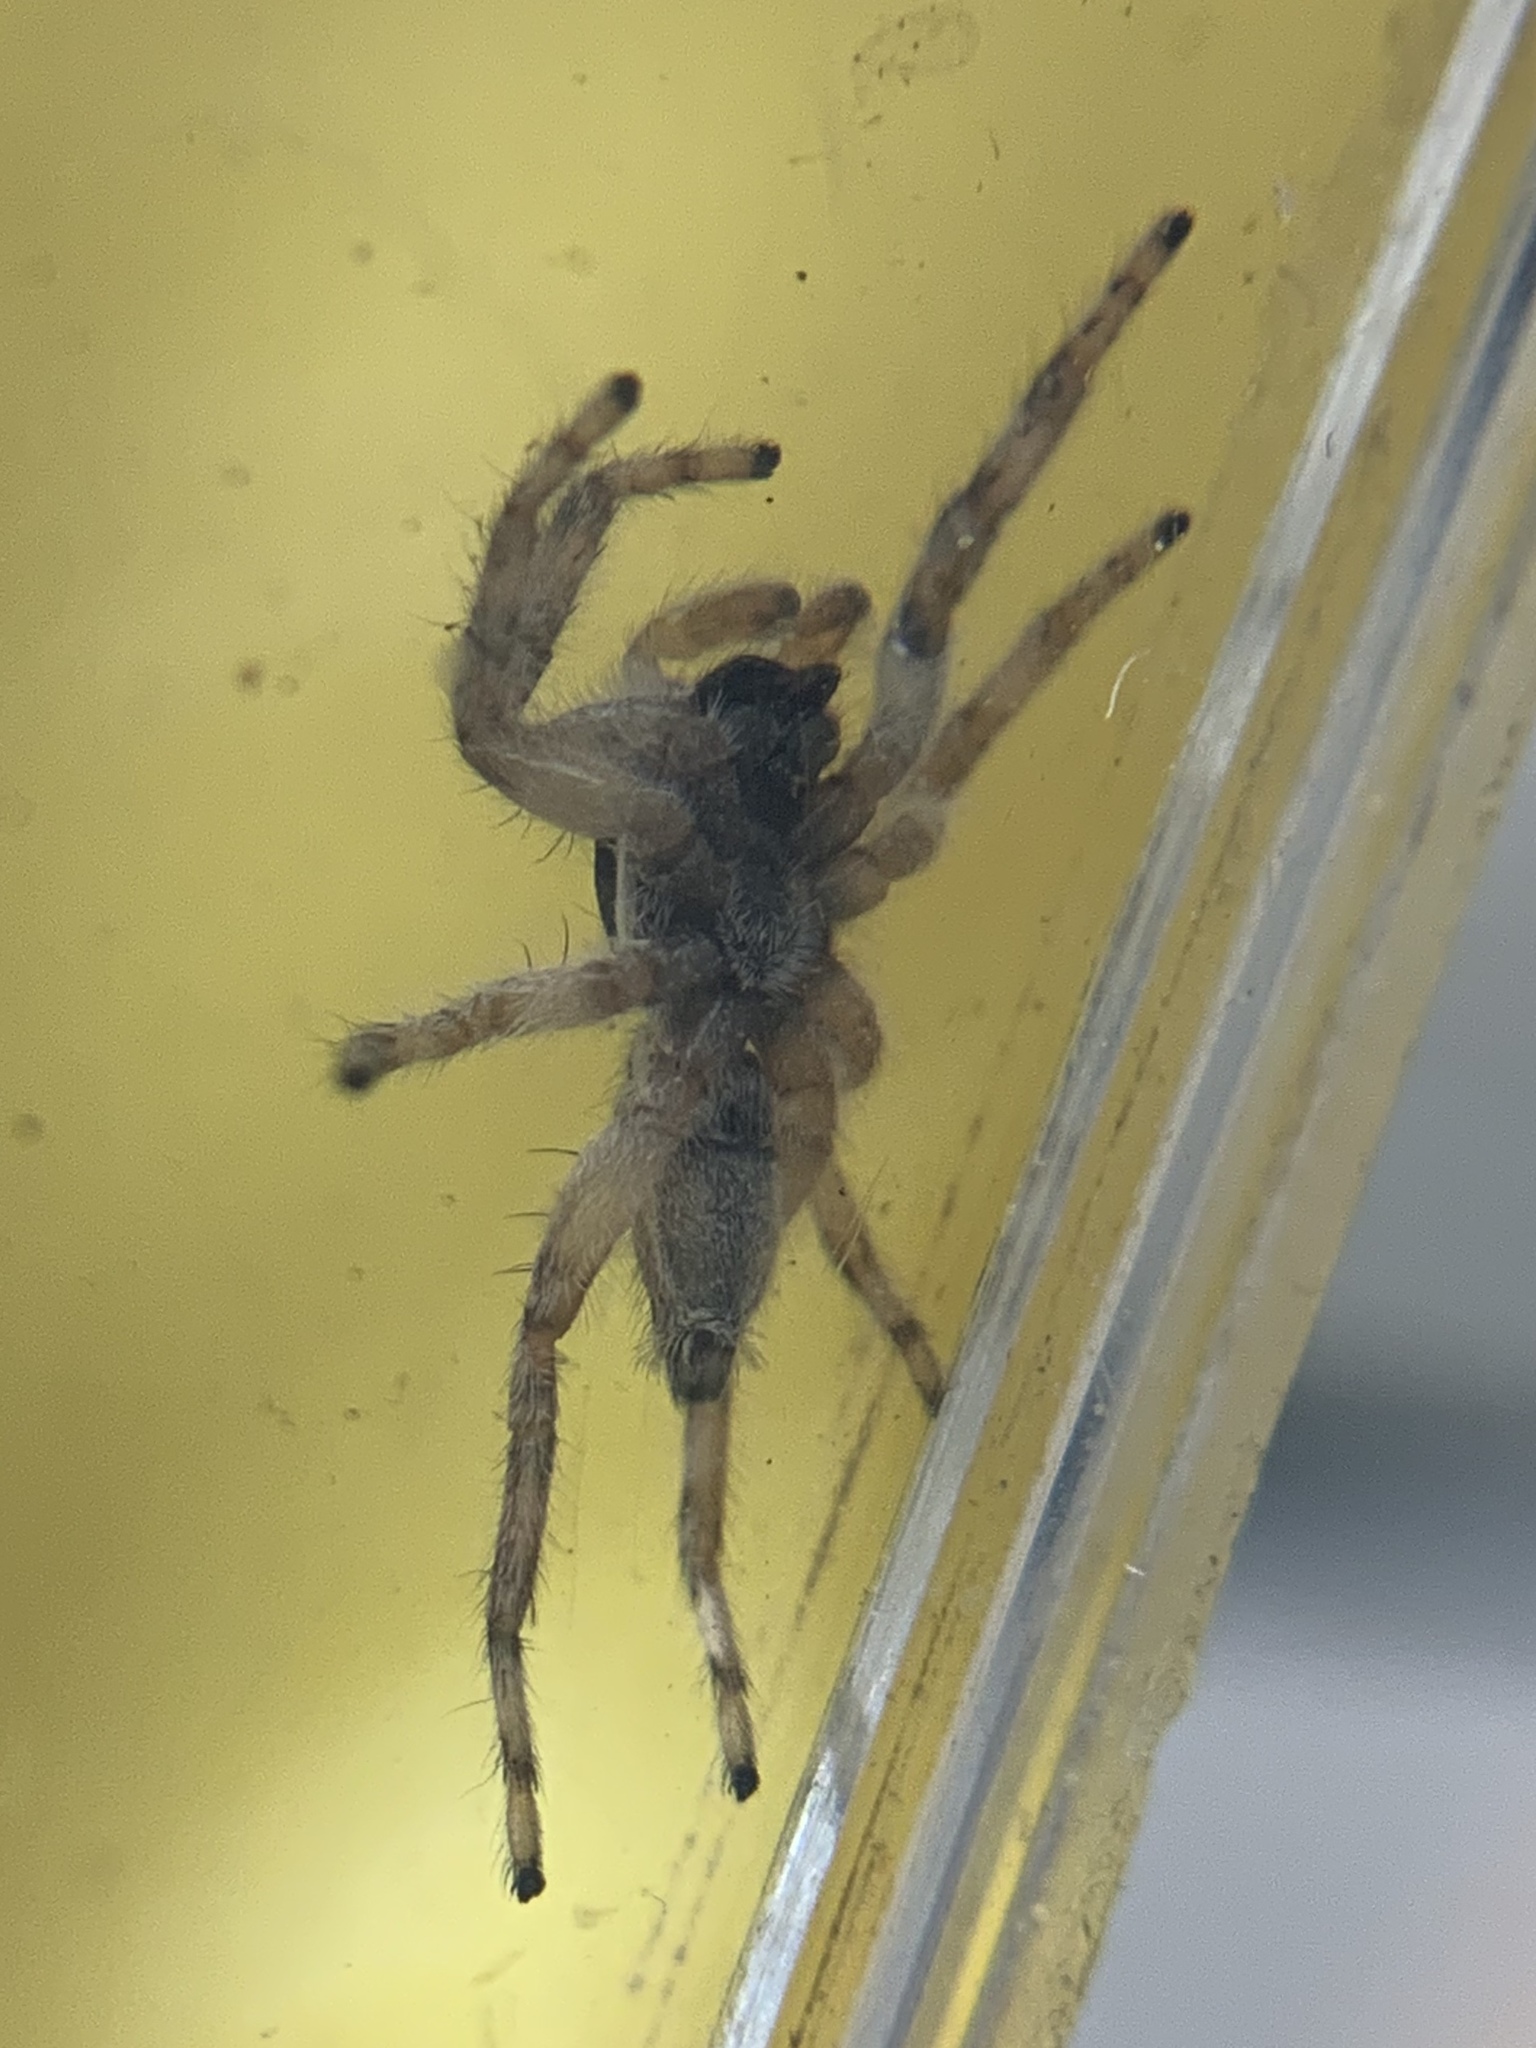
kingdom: Animalia
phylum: Arthropoda
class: Arachnida
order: Araneae
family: Salticidae
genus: Menemerus
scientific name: Menemerus bivittatus
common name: Gray wall jumper
